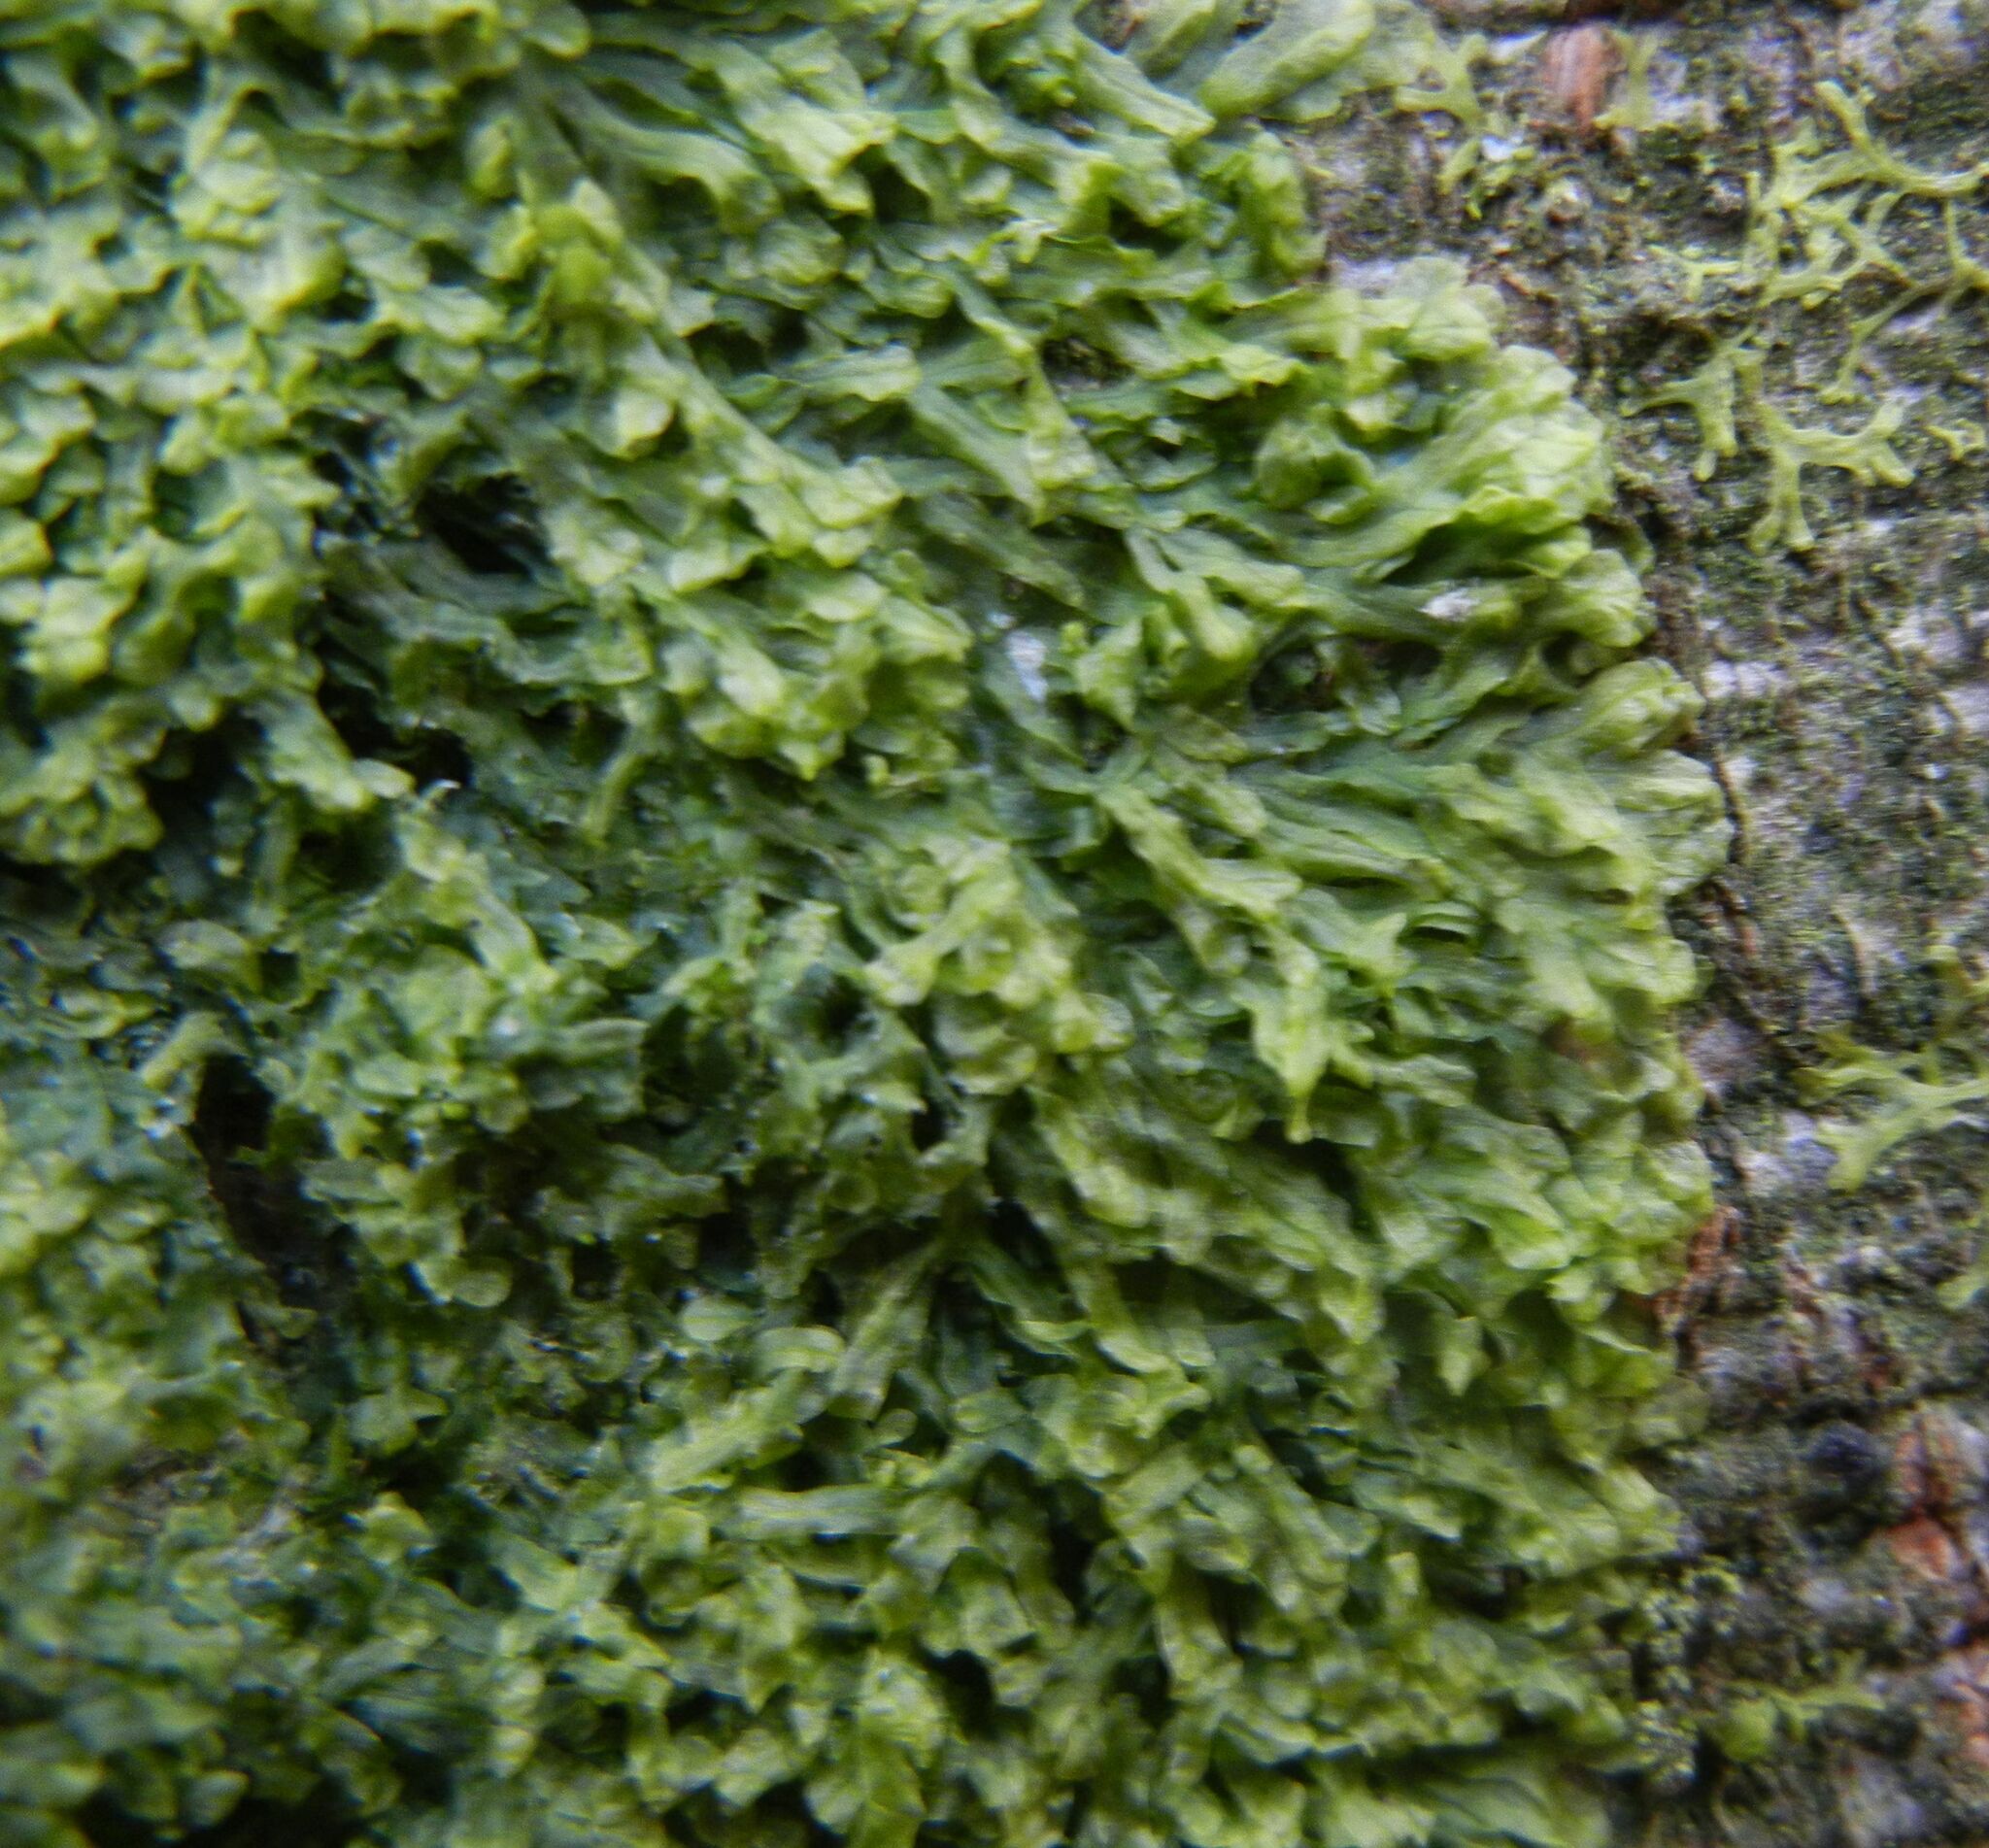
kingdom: Plantae
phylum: Marchantiophyta
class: Jungermanniopsida
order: Metzgeriales
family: Metzgeriaceae
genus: Metzgeria
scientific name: Metzgeria furcata
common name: Forked veilwort
